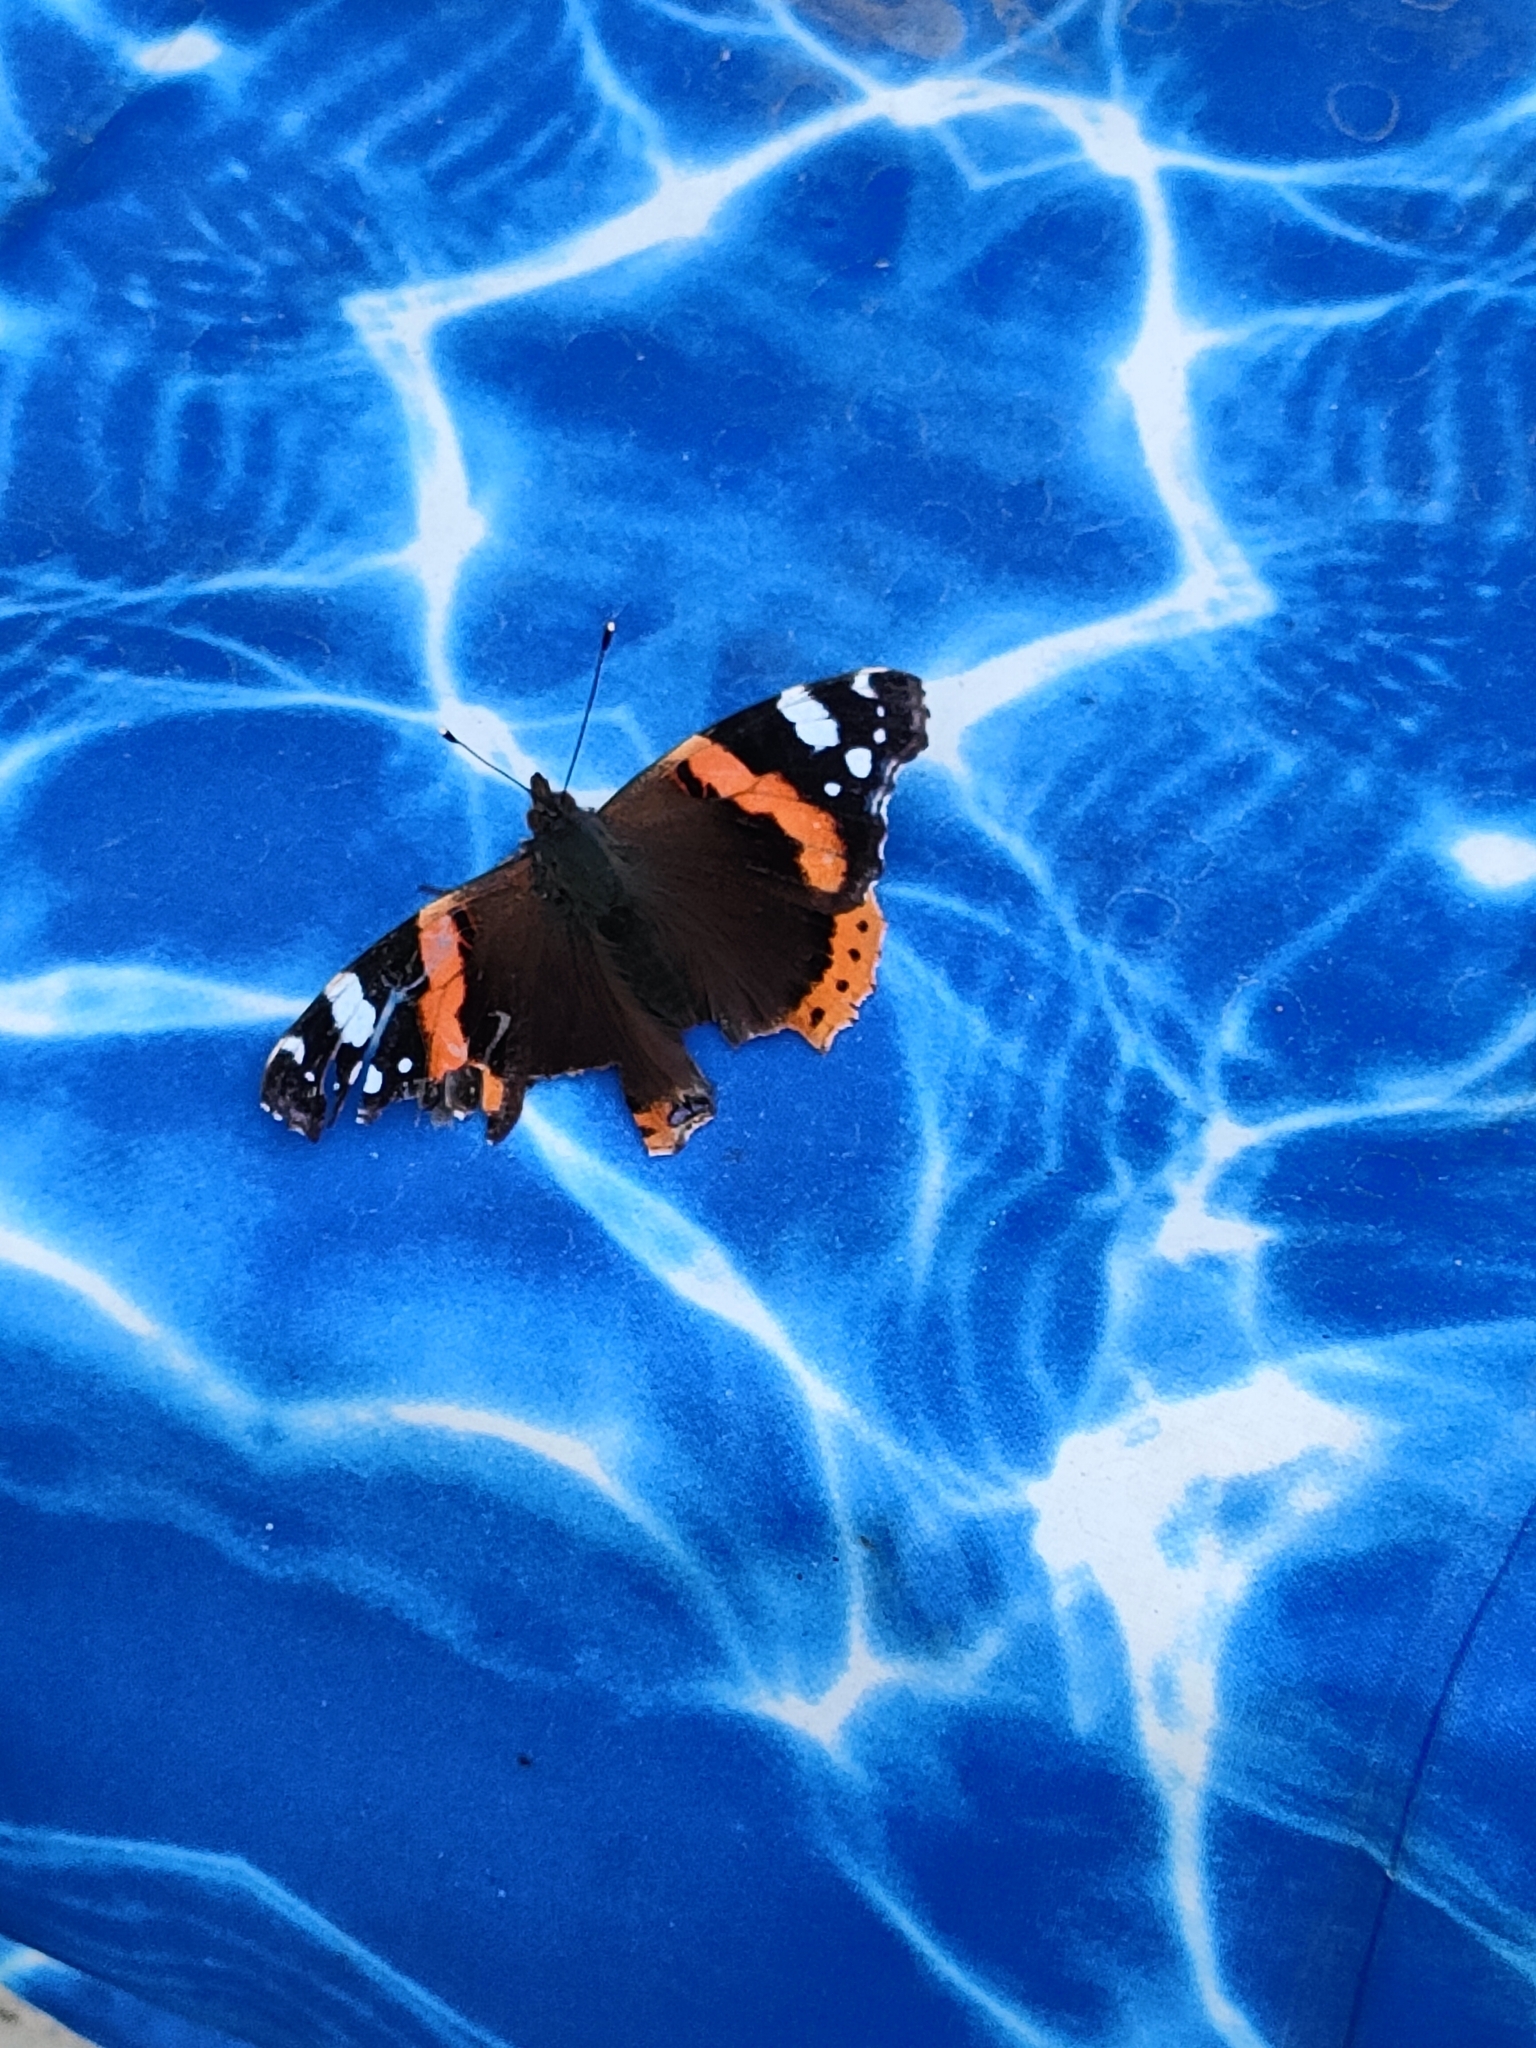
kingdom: Animalia
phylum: Arthropoda
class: Insecta
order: Lepidoptera
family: Nymphalidae
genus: Vanessa
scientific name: Vanessa atalanta
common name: Red admiral
